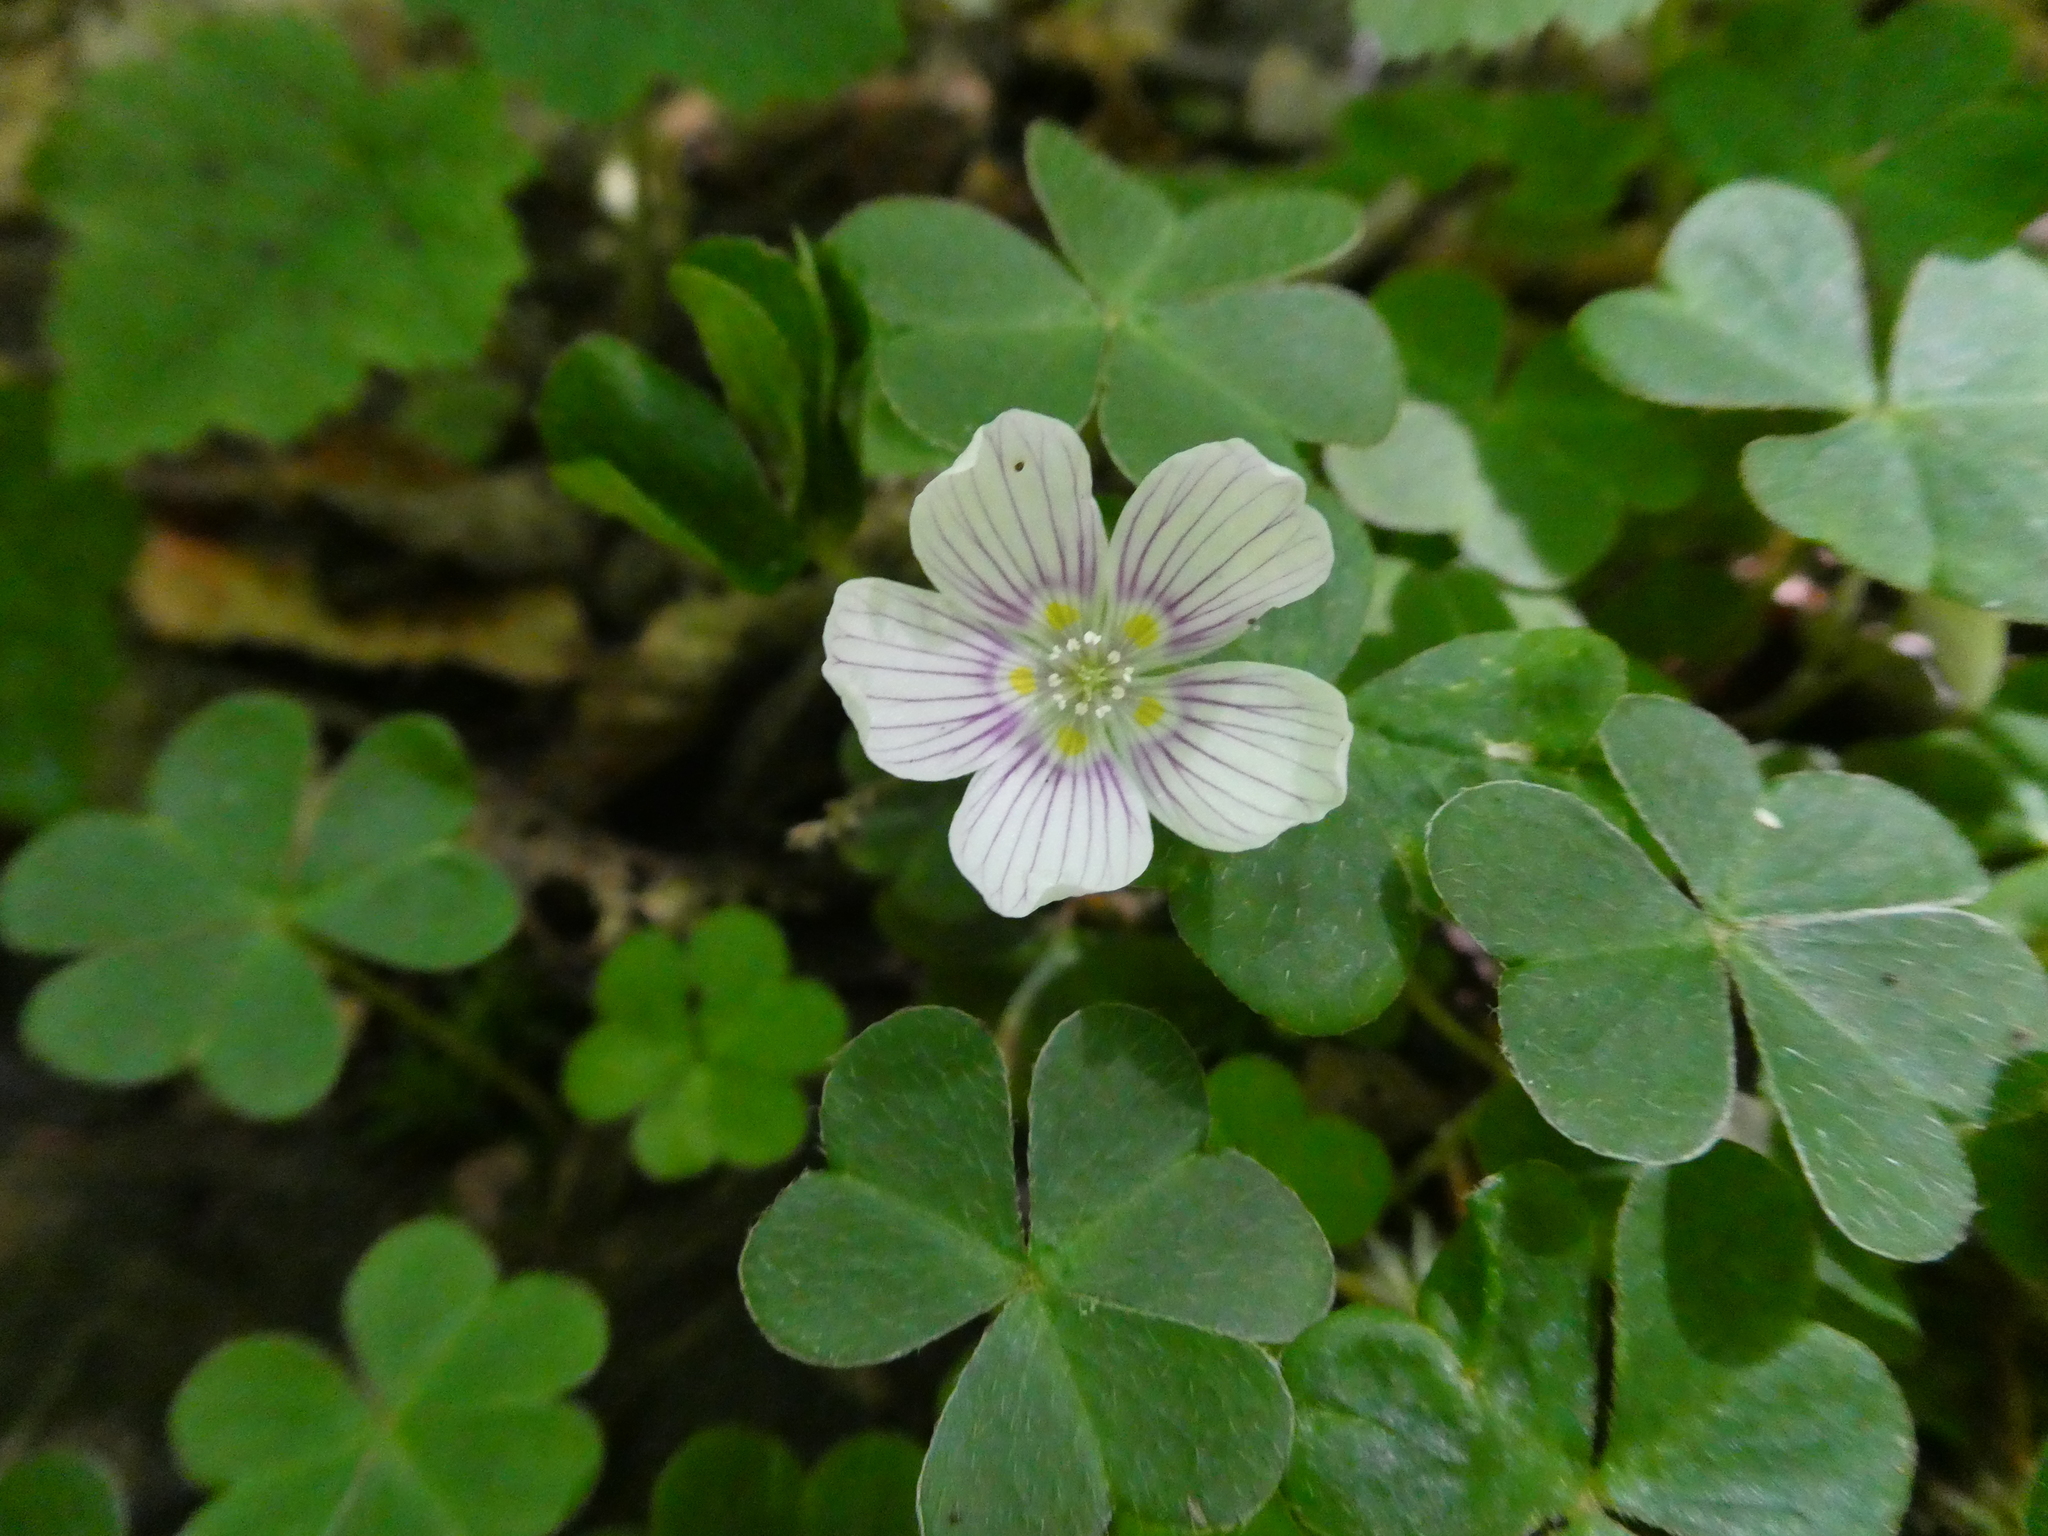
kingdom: Plantae
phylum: Tracheophyta
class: Magnoliopsida
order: Oxalidales
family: Oxalidaceae
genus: Oxalis
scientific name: Oxalis montana
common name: American wood-sorrel
